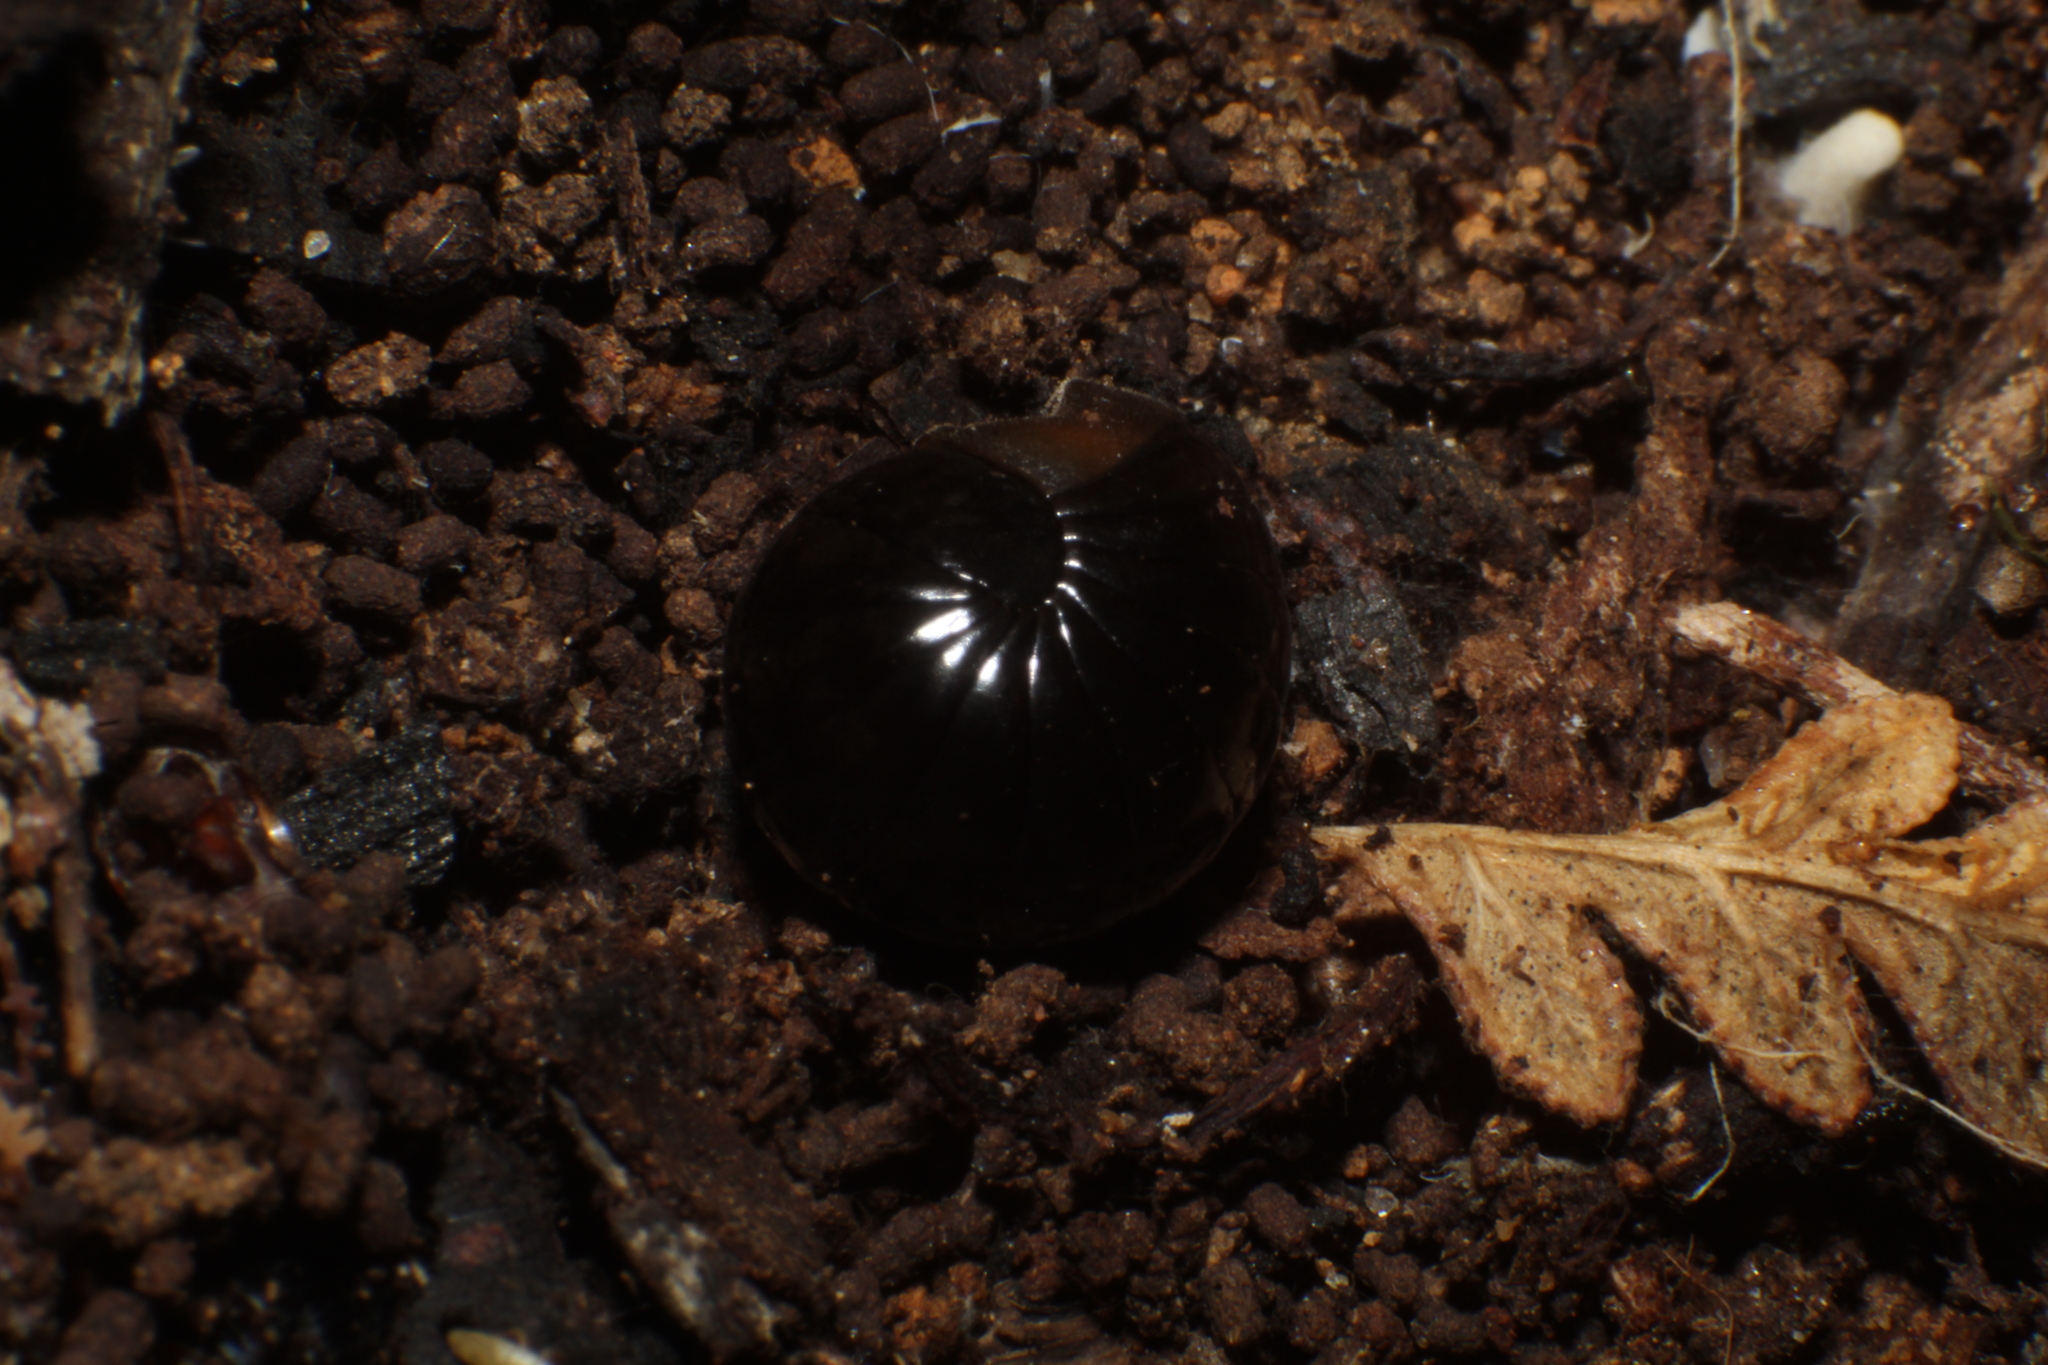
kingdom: Animalia
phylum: Arthropoda
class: Diplopoda
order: Sphaerotheriida
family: Cyliosomatidae
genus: Cynotelopus
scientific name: Cynotelopus notabilis
